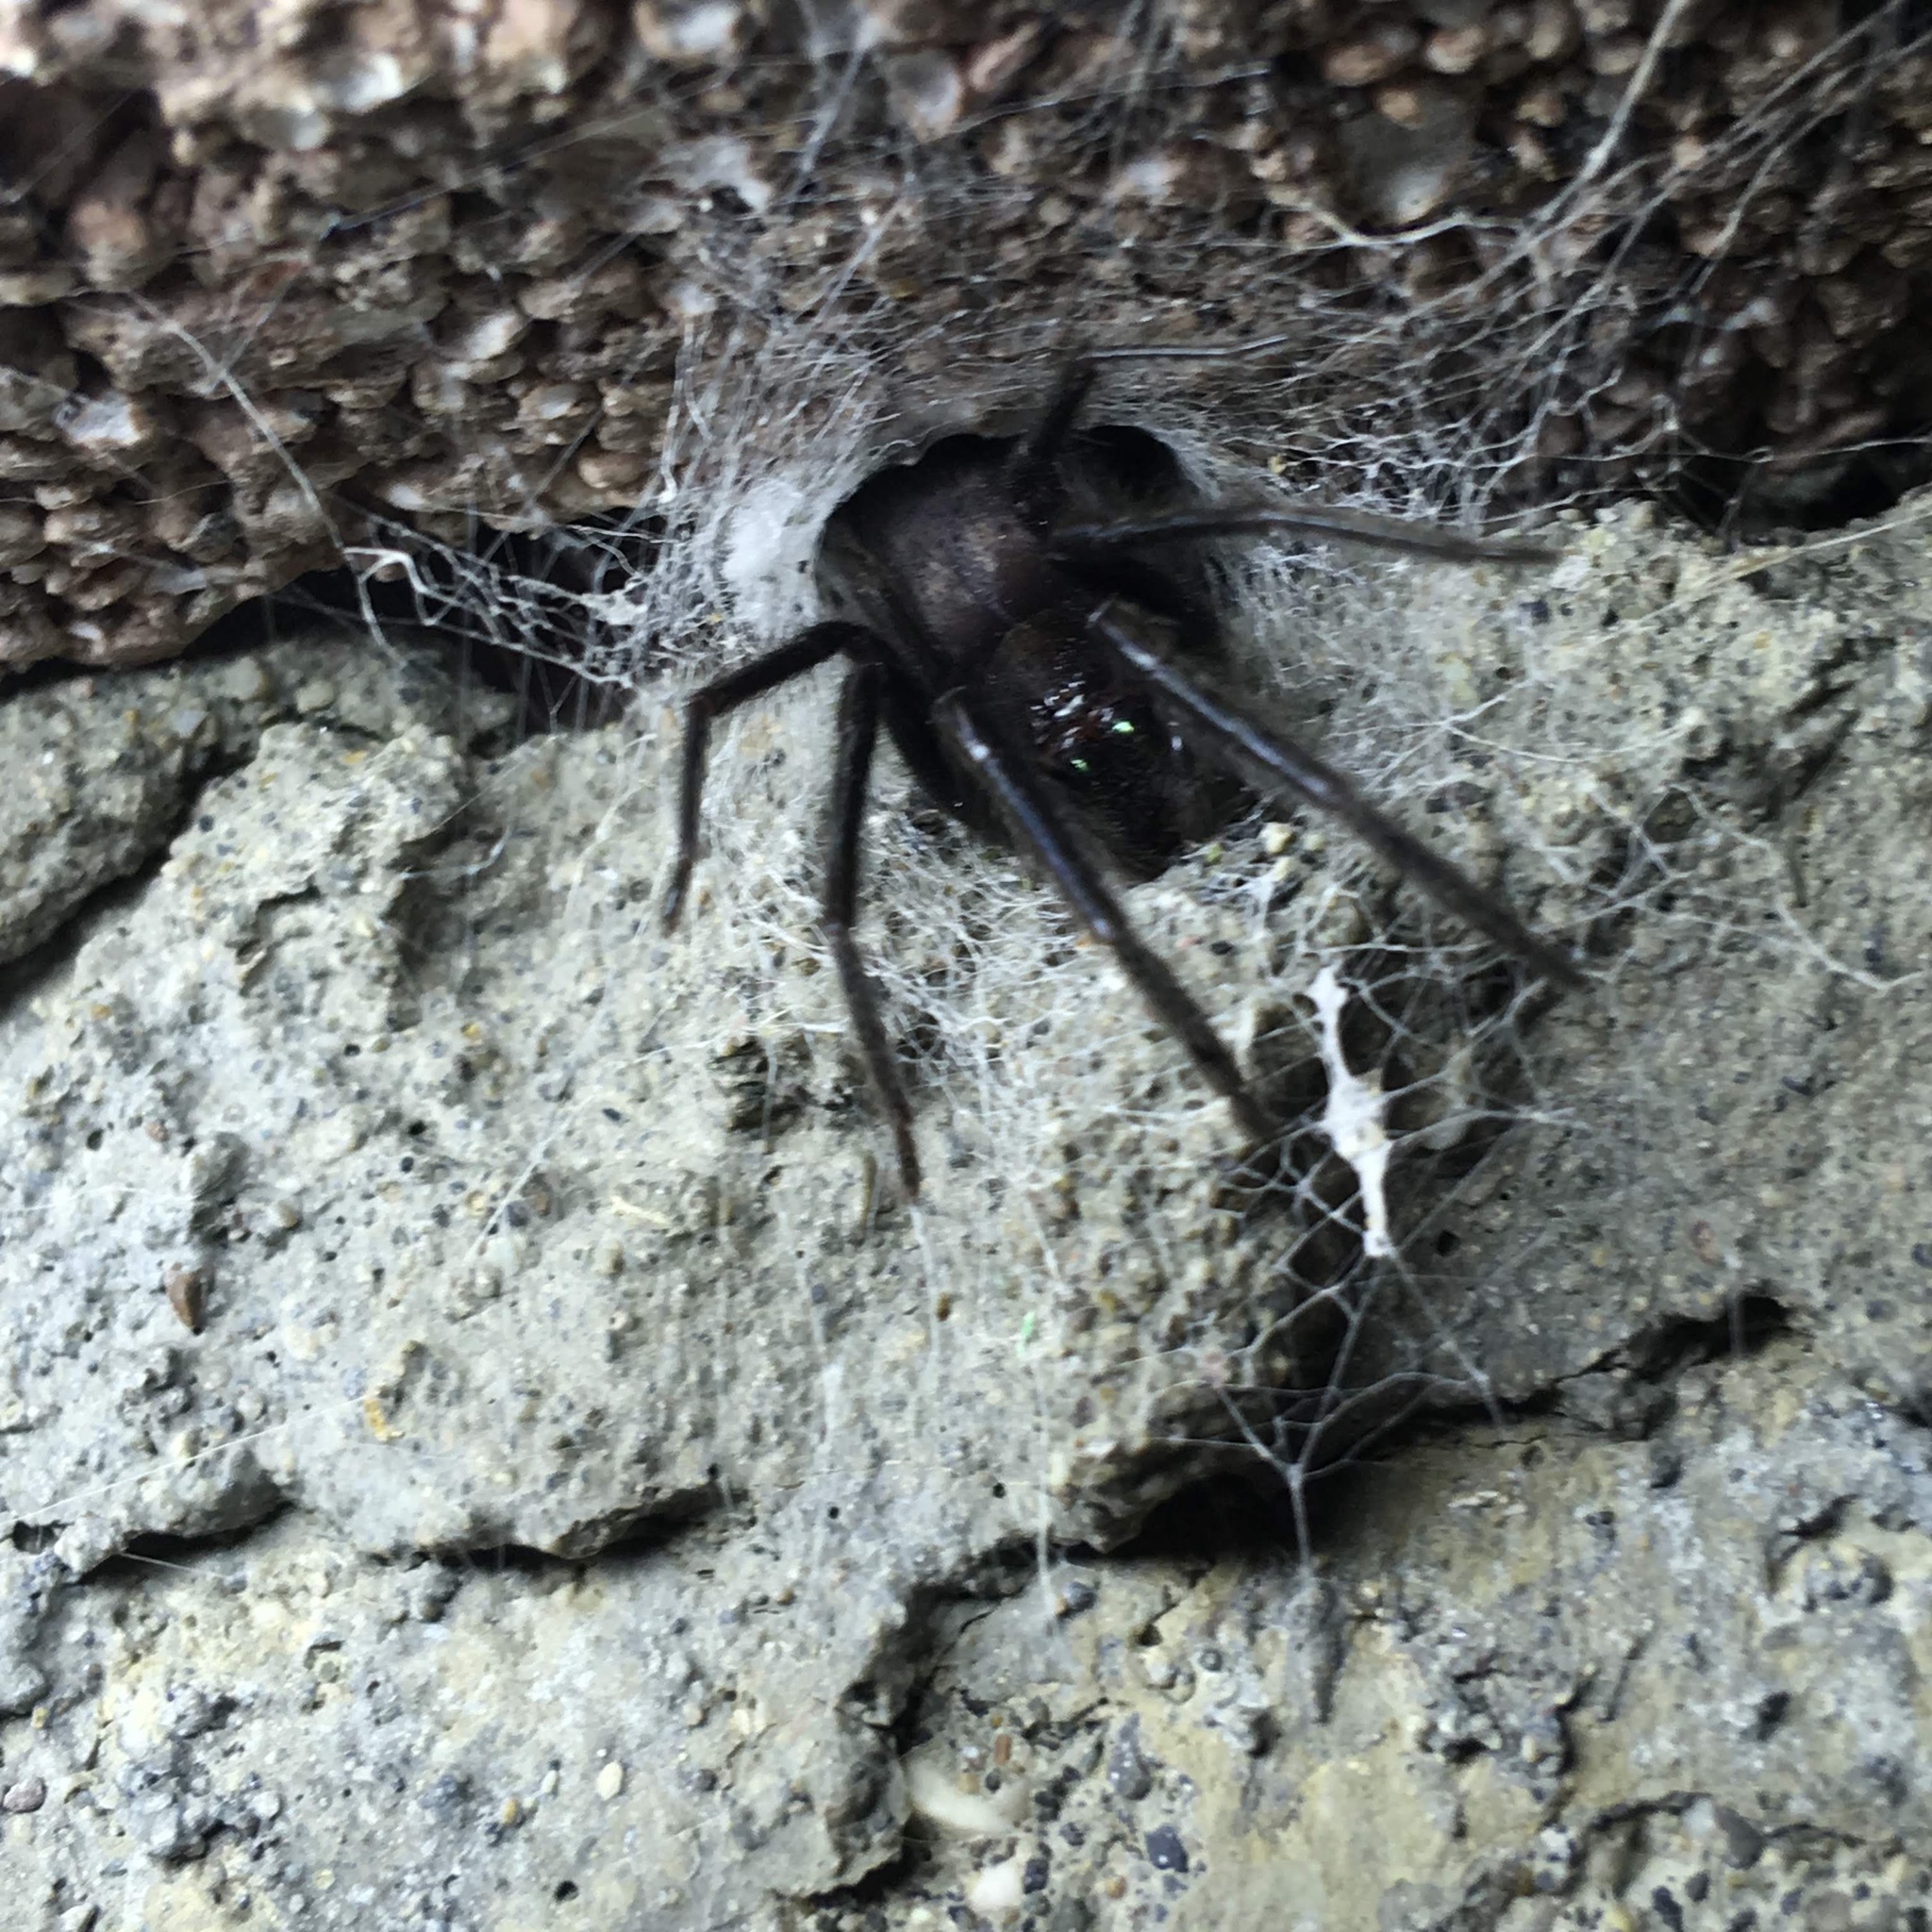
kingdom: Animalia
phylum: Arthropoda
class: Arachnida
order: Araneae
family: Segestriidae
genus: Segestria
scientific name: Segestria florentina
